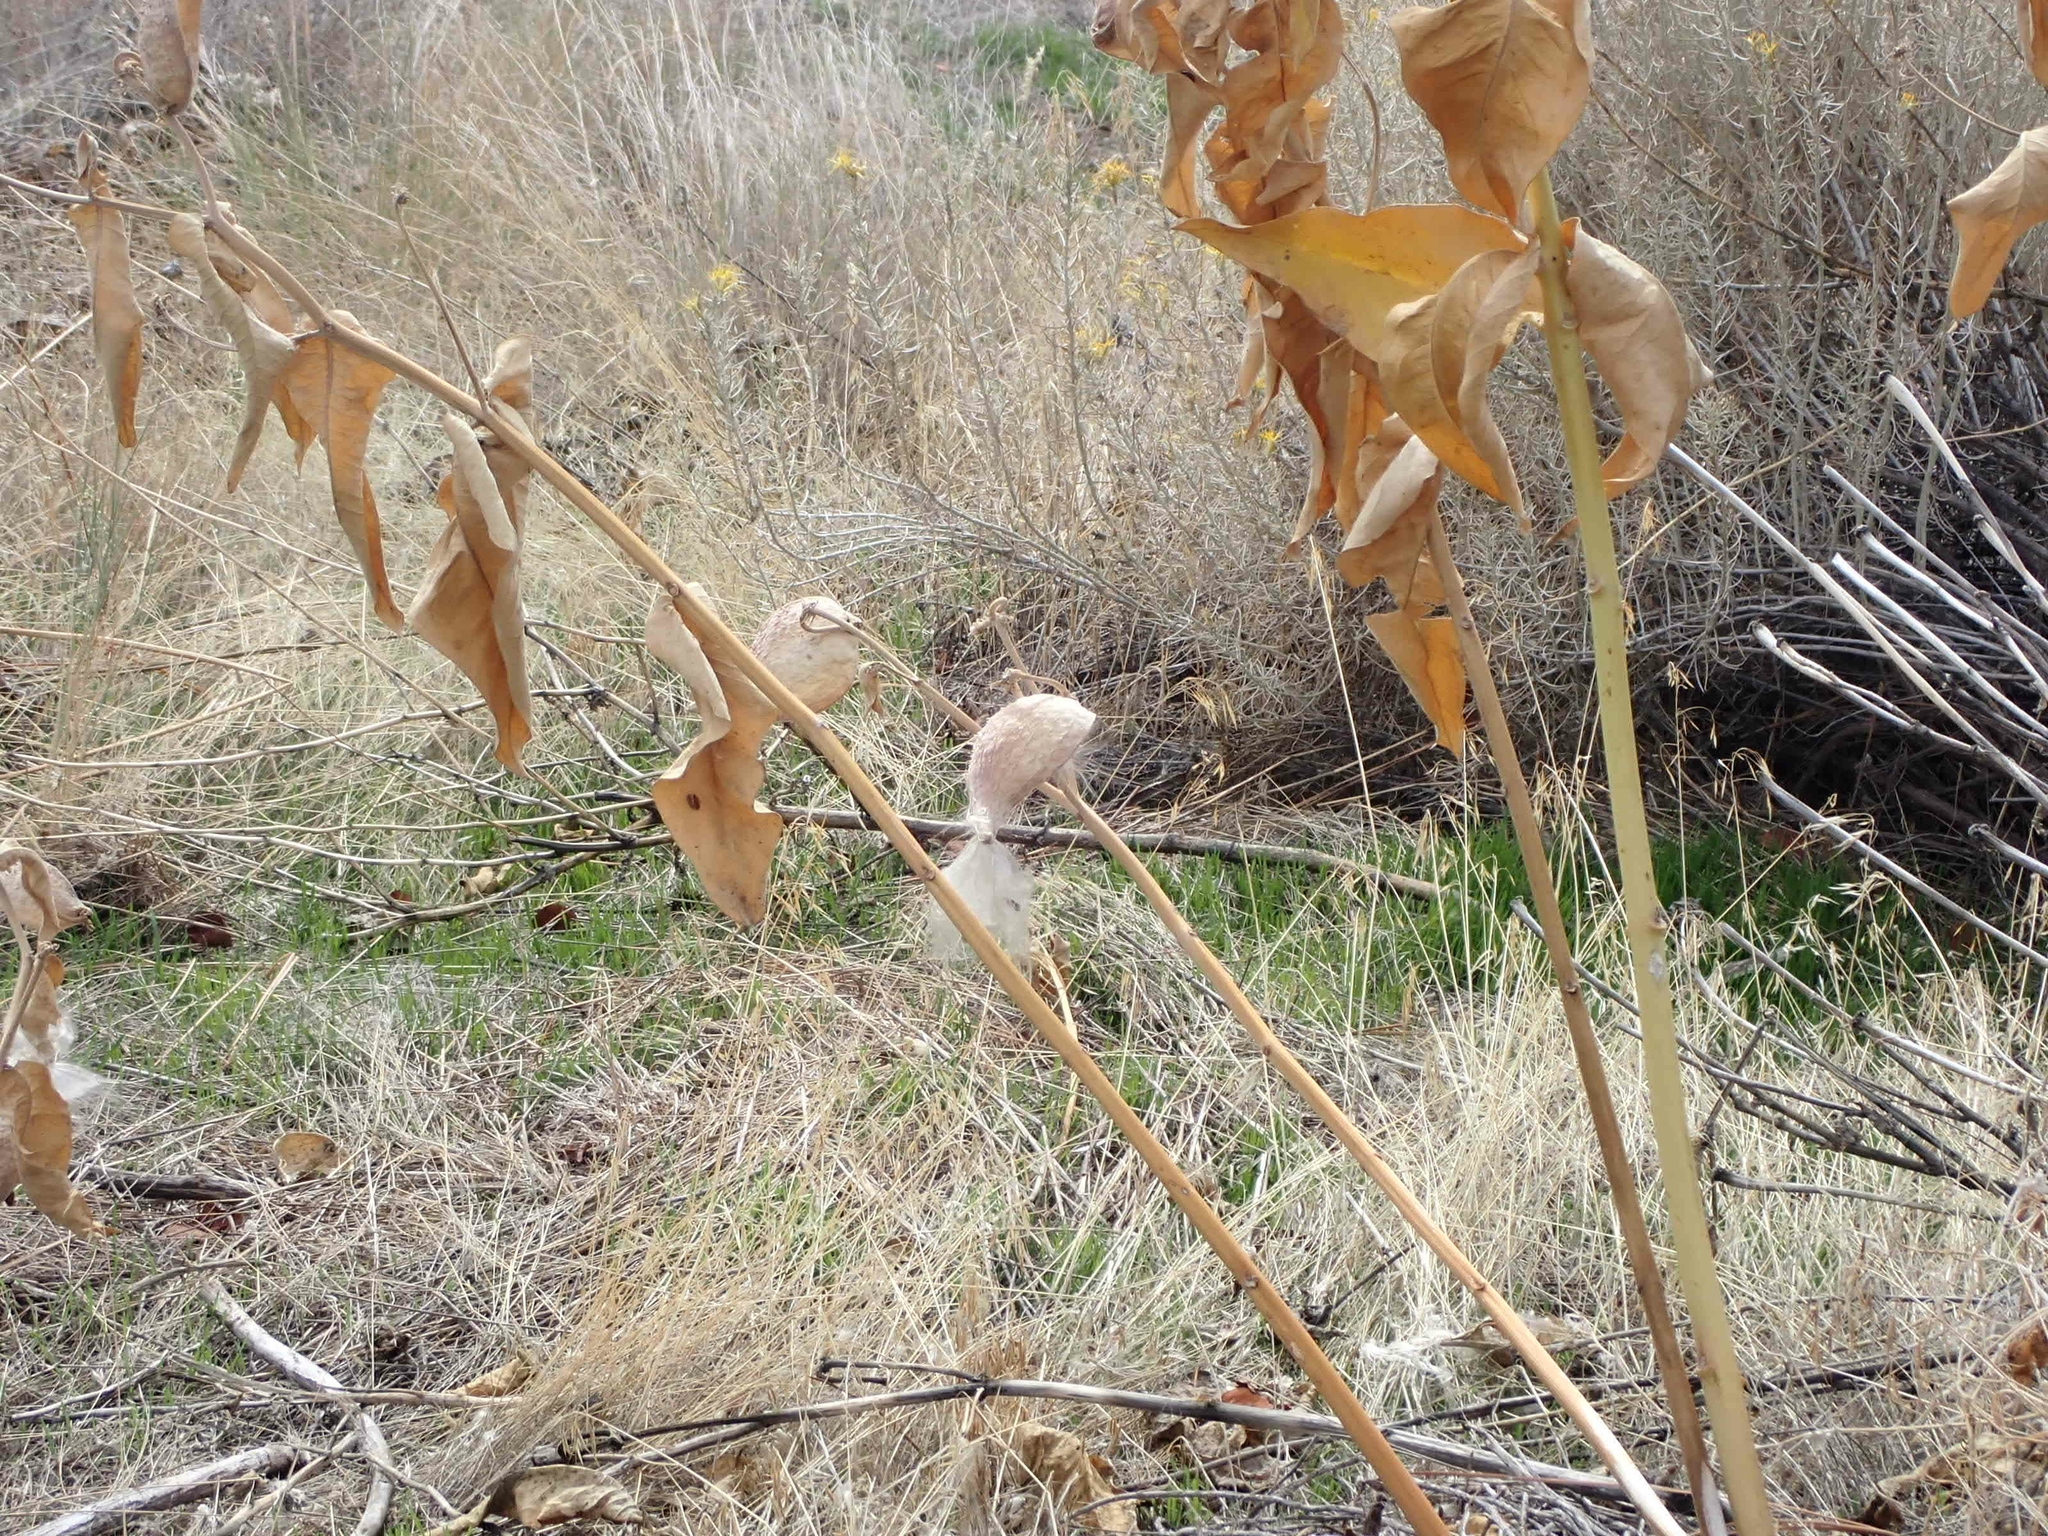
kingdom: Plantae
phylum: Tracheophyta
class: Magnoliopsida
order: Gentianales
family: Apocynaceae
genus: Asclepias
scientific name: Asclepias speciosa
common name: Showy milkweed
